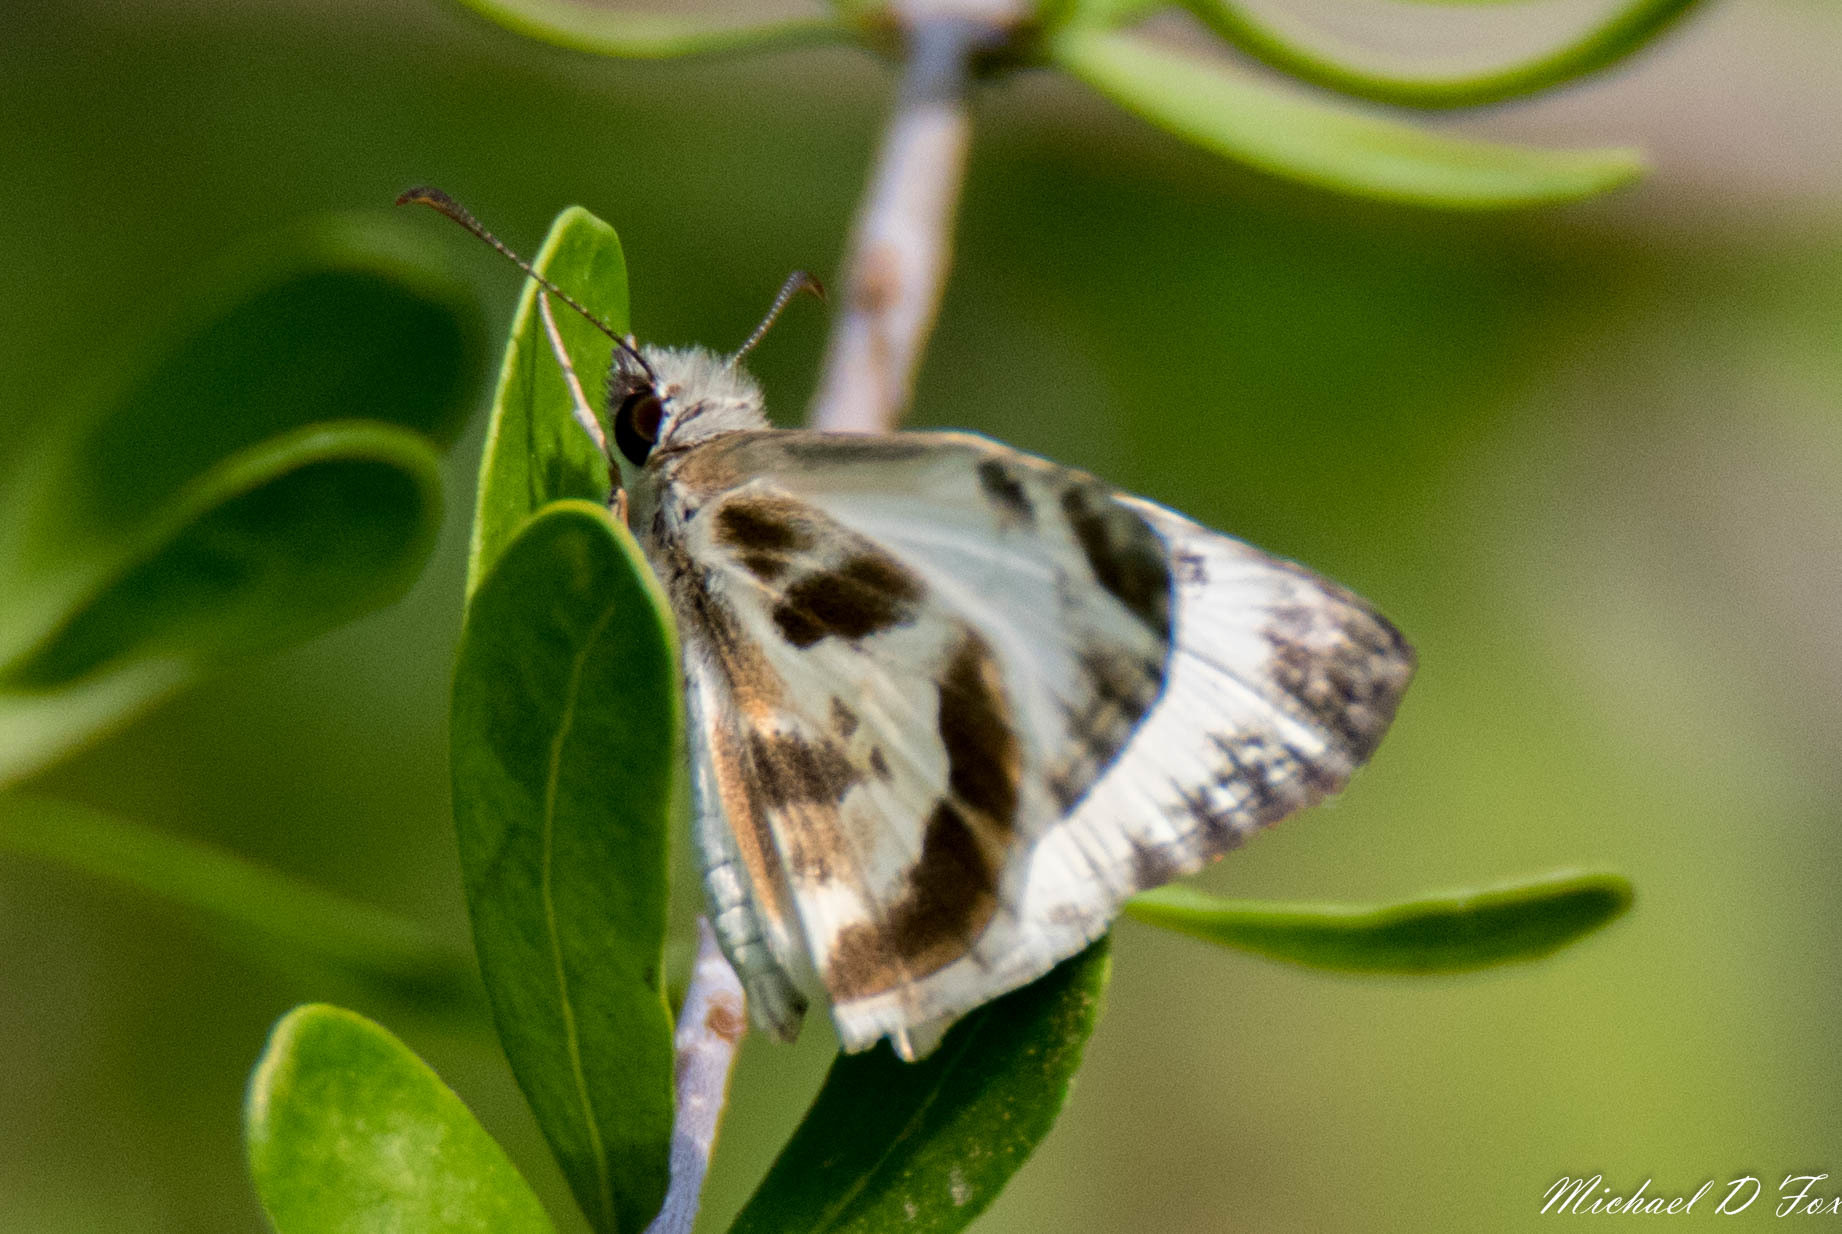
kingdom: Animalia
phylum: Arthropoda
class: Insecta
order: Lepidoptera
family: Hesperiidae
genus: Heliopetes
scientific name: Heliopetes macaira
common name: Turk's-cap white-skipper
